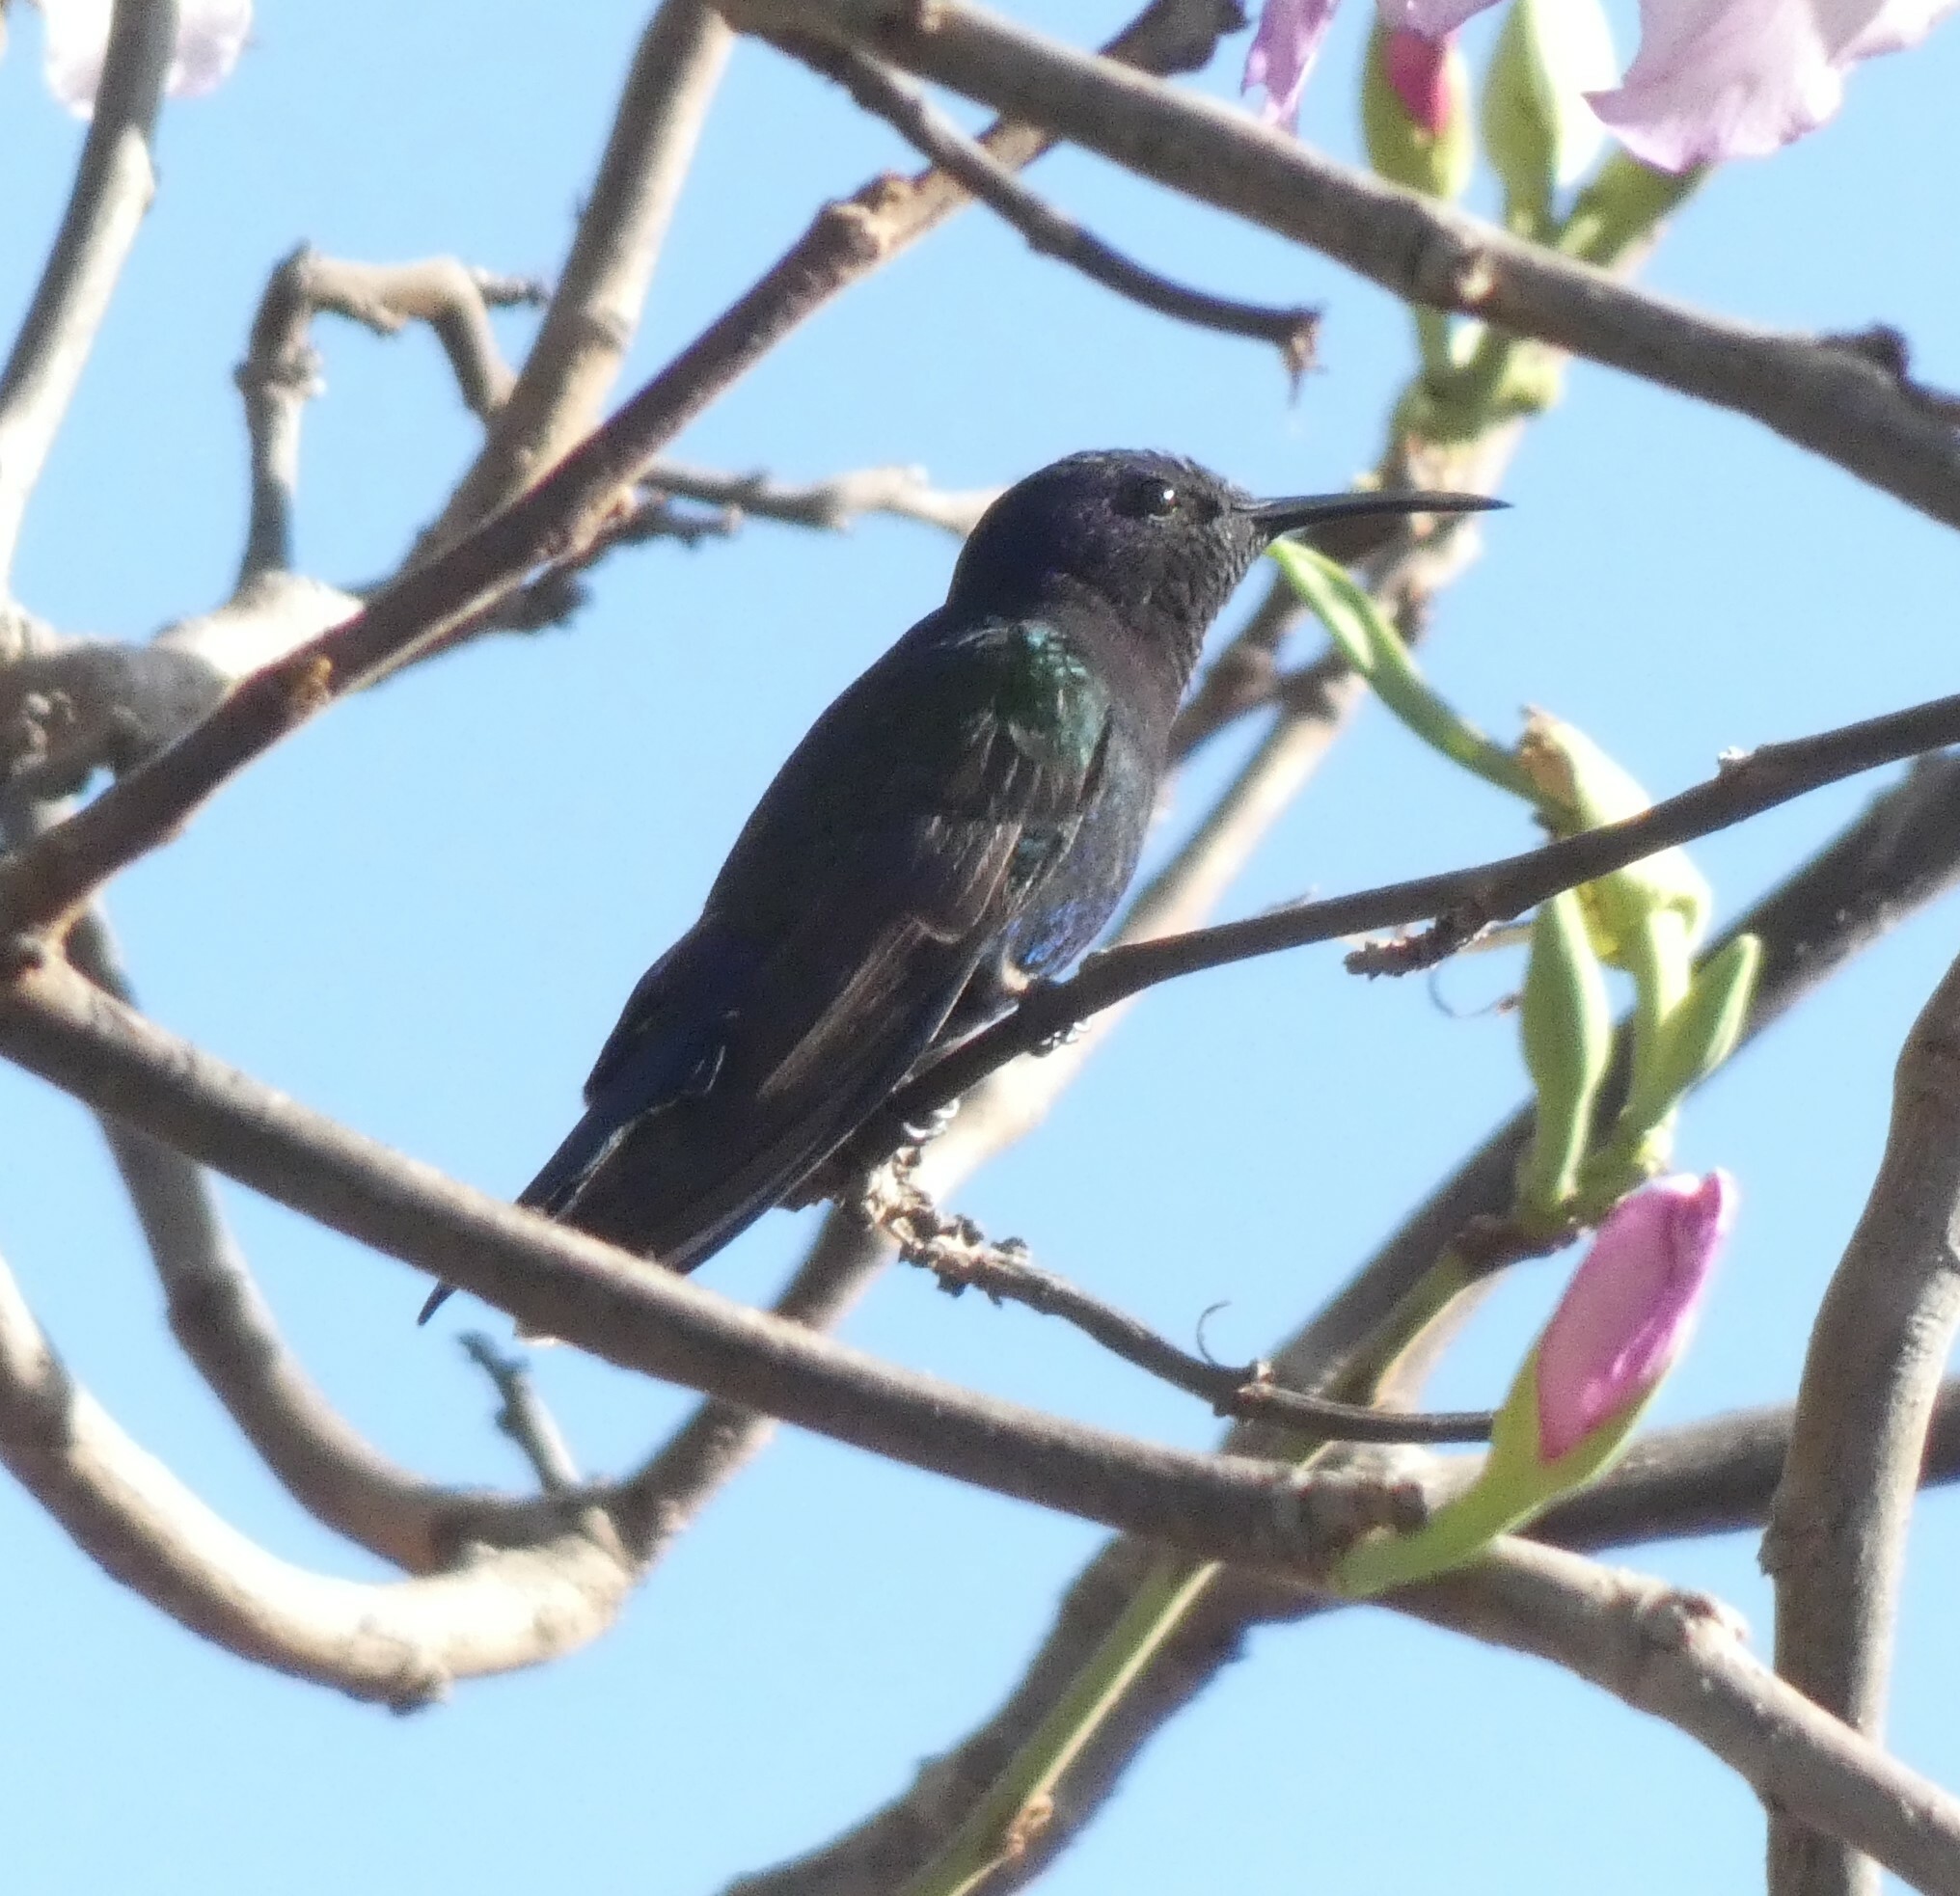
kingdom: Animalia
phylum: Chordata
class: Aves
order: Apodiformes
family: Trochilidae
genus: Eupetomena
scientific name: Eupetomena macroura
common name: Swallow-tailed hummingbird
